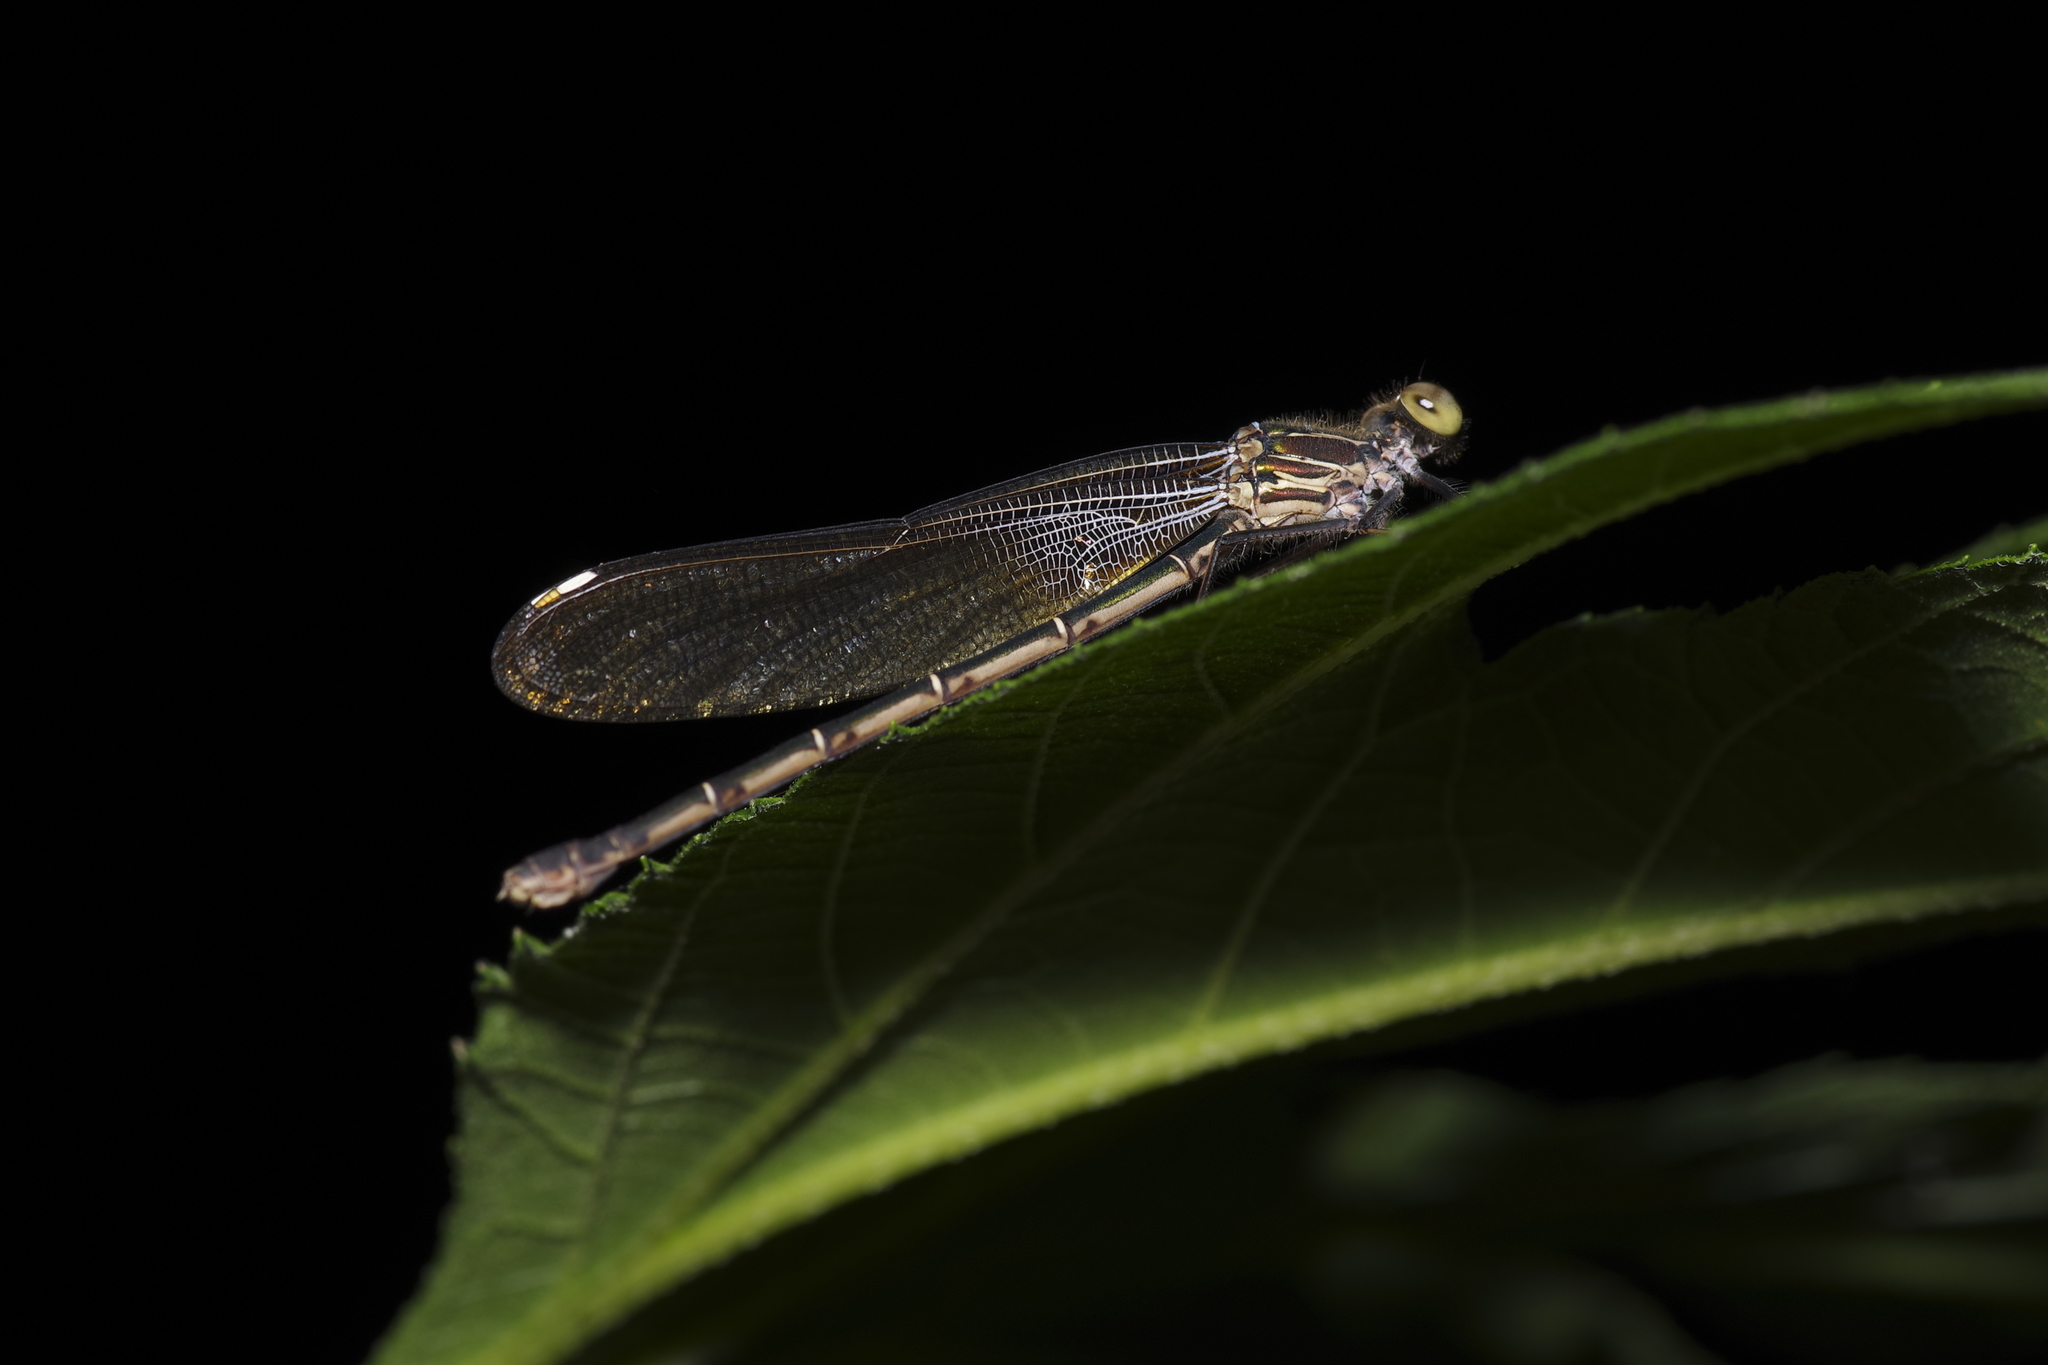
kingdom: Animalia
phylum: Arthropoda
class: Insecta
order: Odonata
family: Calopterygidae
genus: Hetaerina
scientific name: Hetaerina americana
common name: American rubyspot
